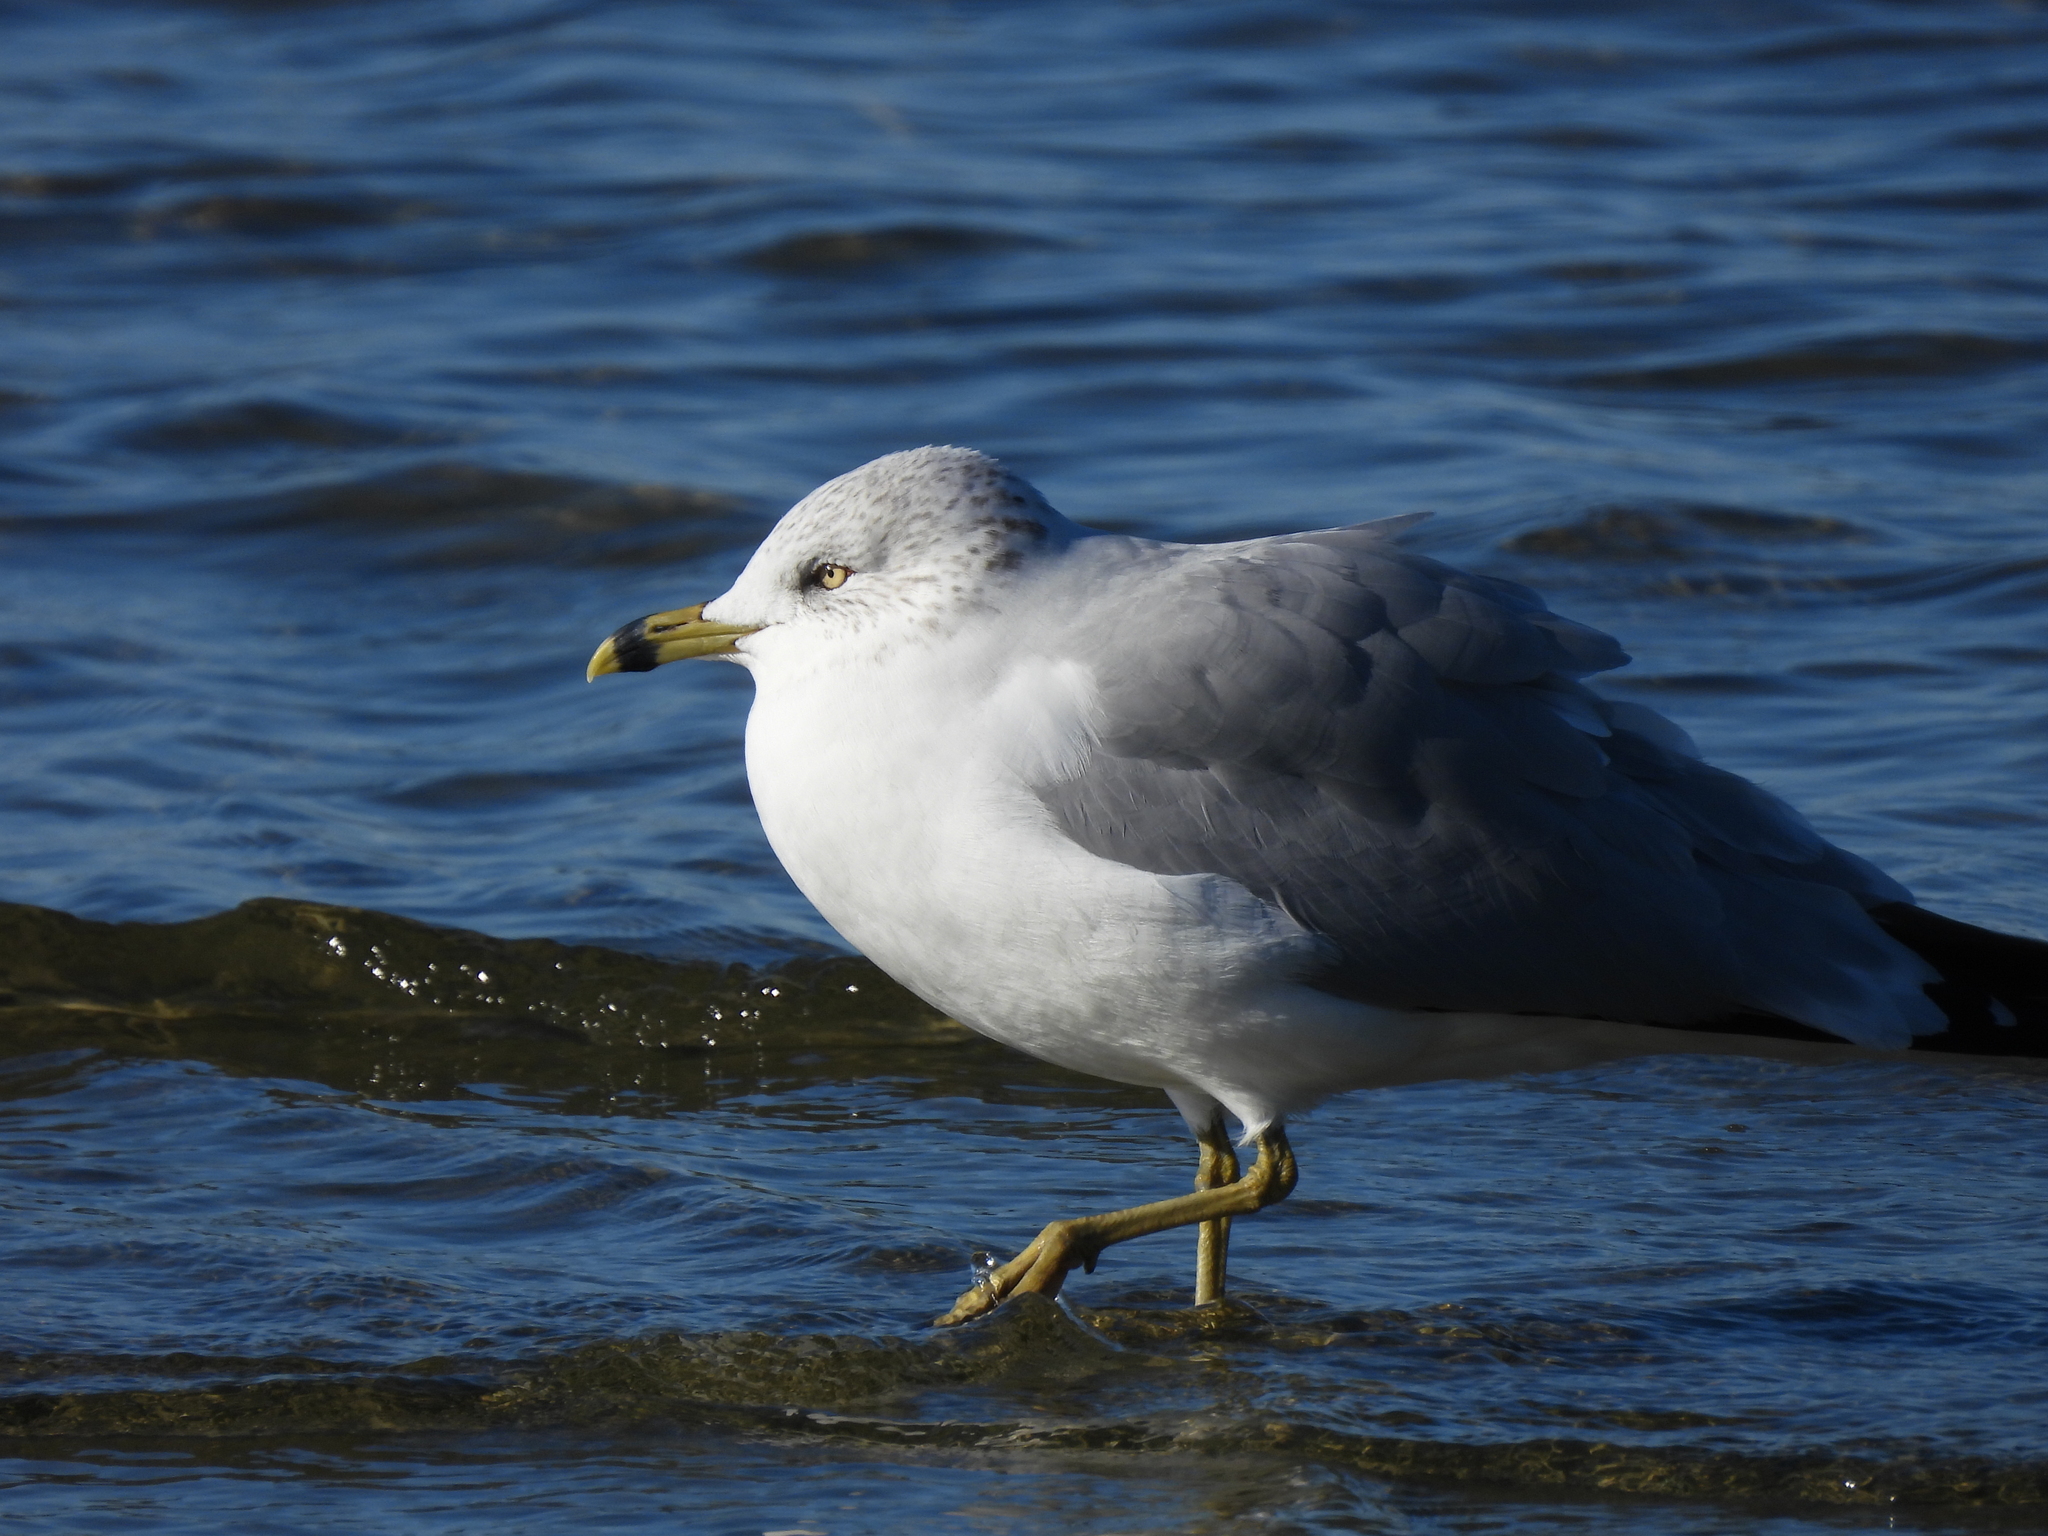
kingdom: Animalia
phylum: Chordata
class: Aves
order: Charadriiformes
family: Laridae
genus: Larus
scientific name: Larus delawarensis
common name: Ring-billed gull
